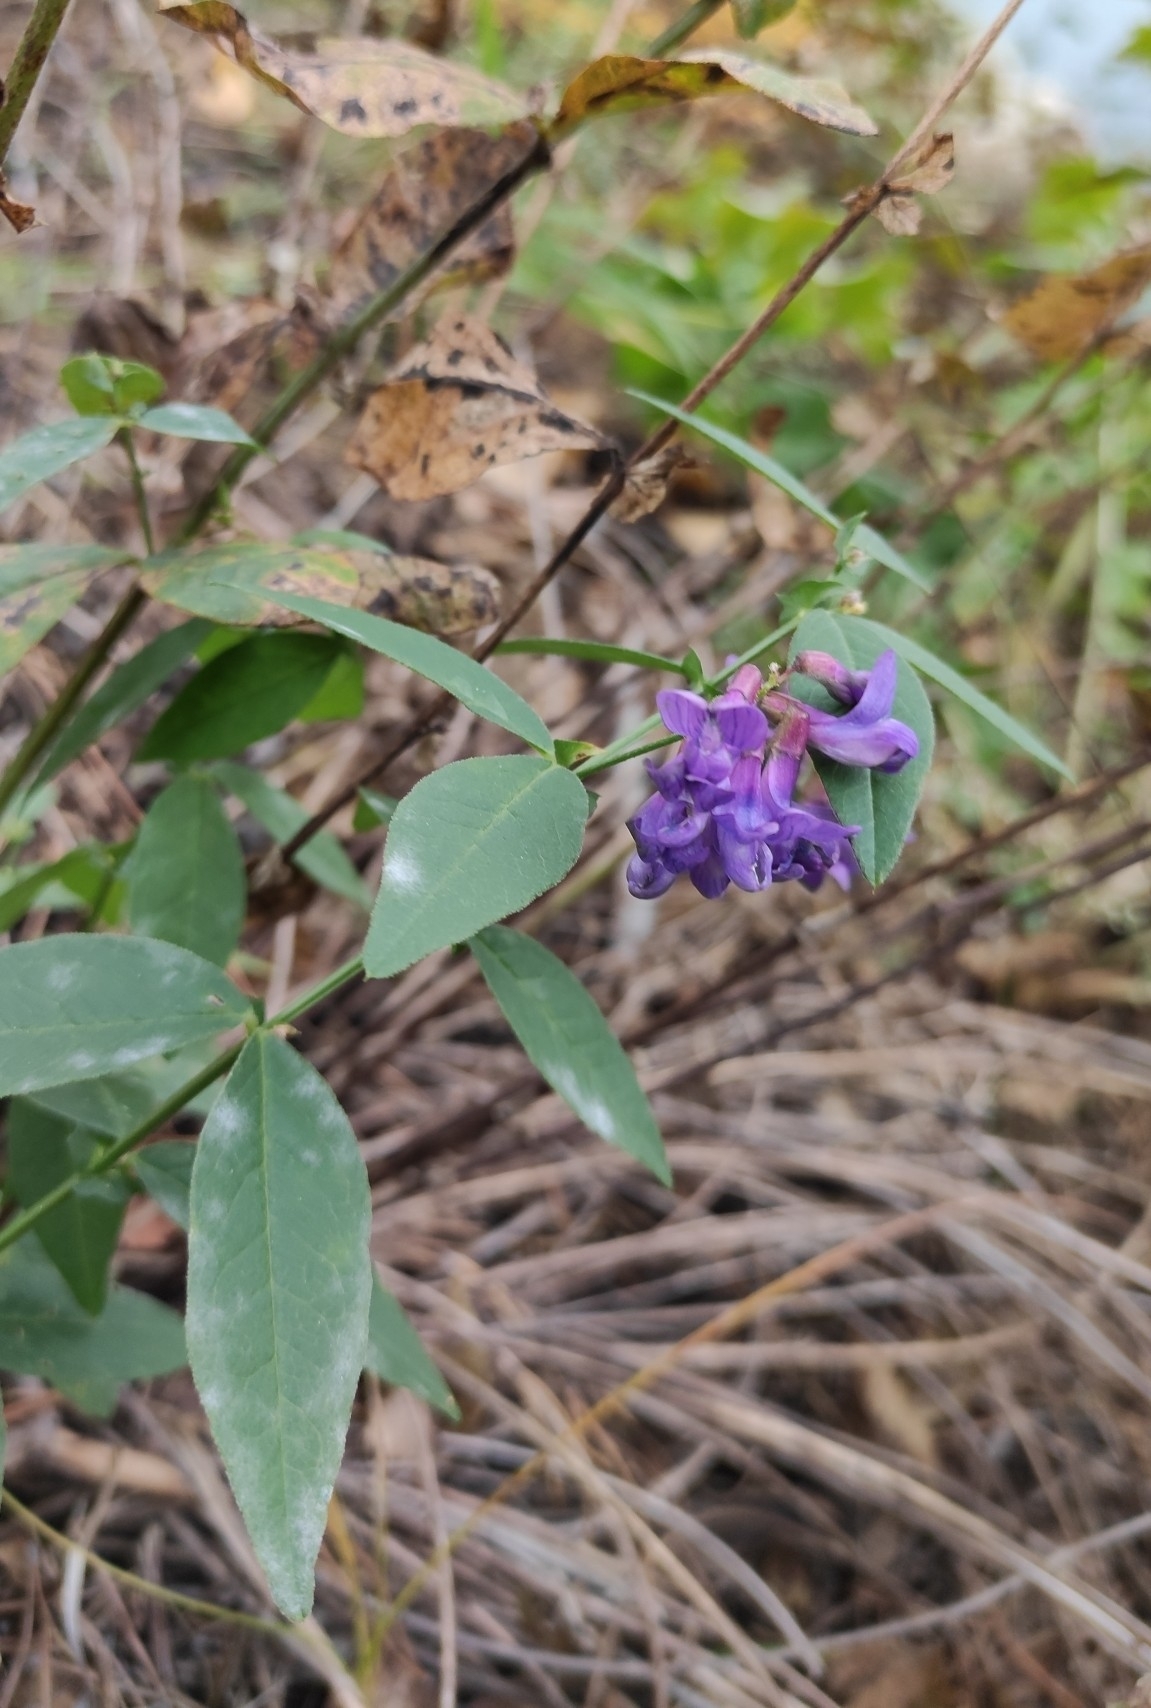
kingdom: Plantae
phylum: Tracheophyta
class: Magnoliopsida
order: Fabales
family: Fabaceae
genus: Vicia
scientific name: Vicia unijuga
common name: Two-leaf vetch
